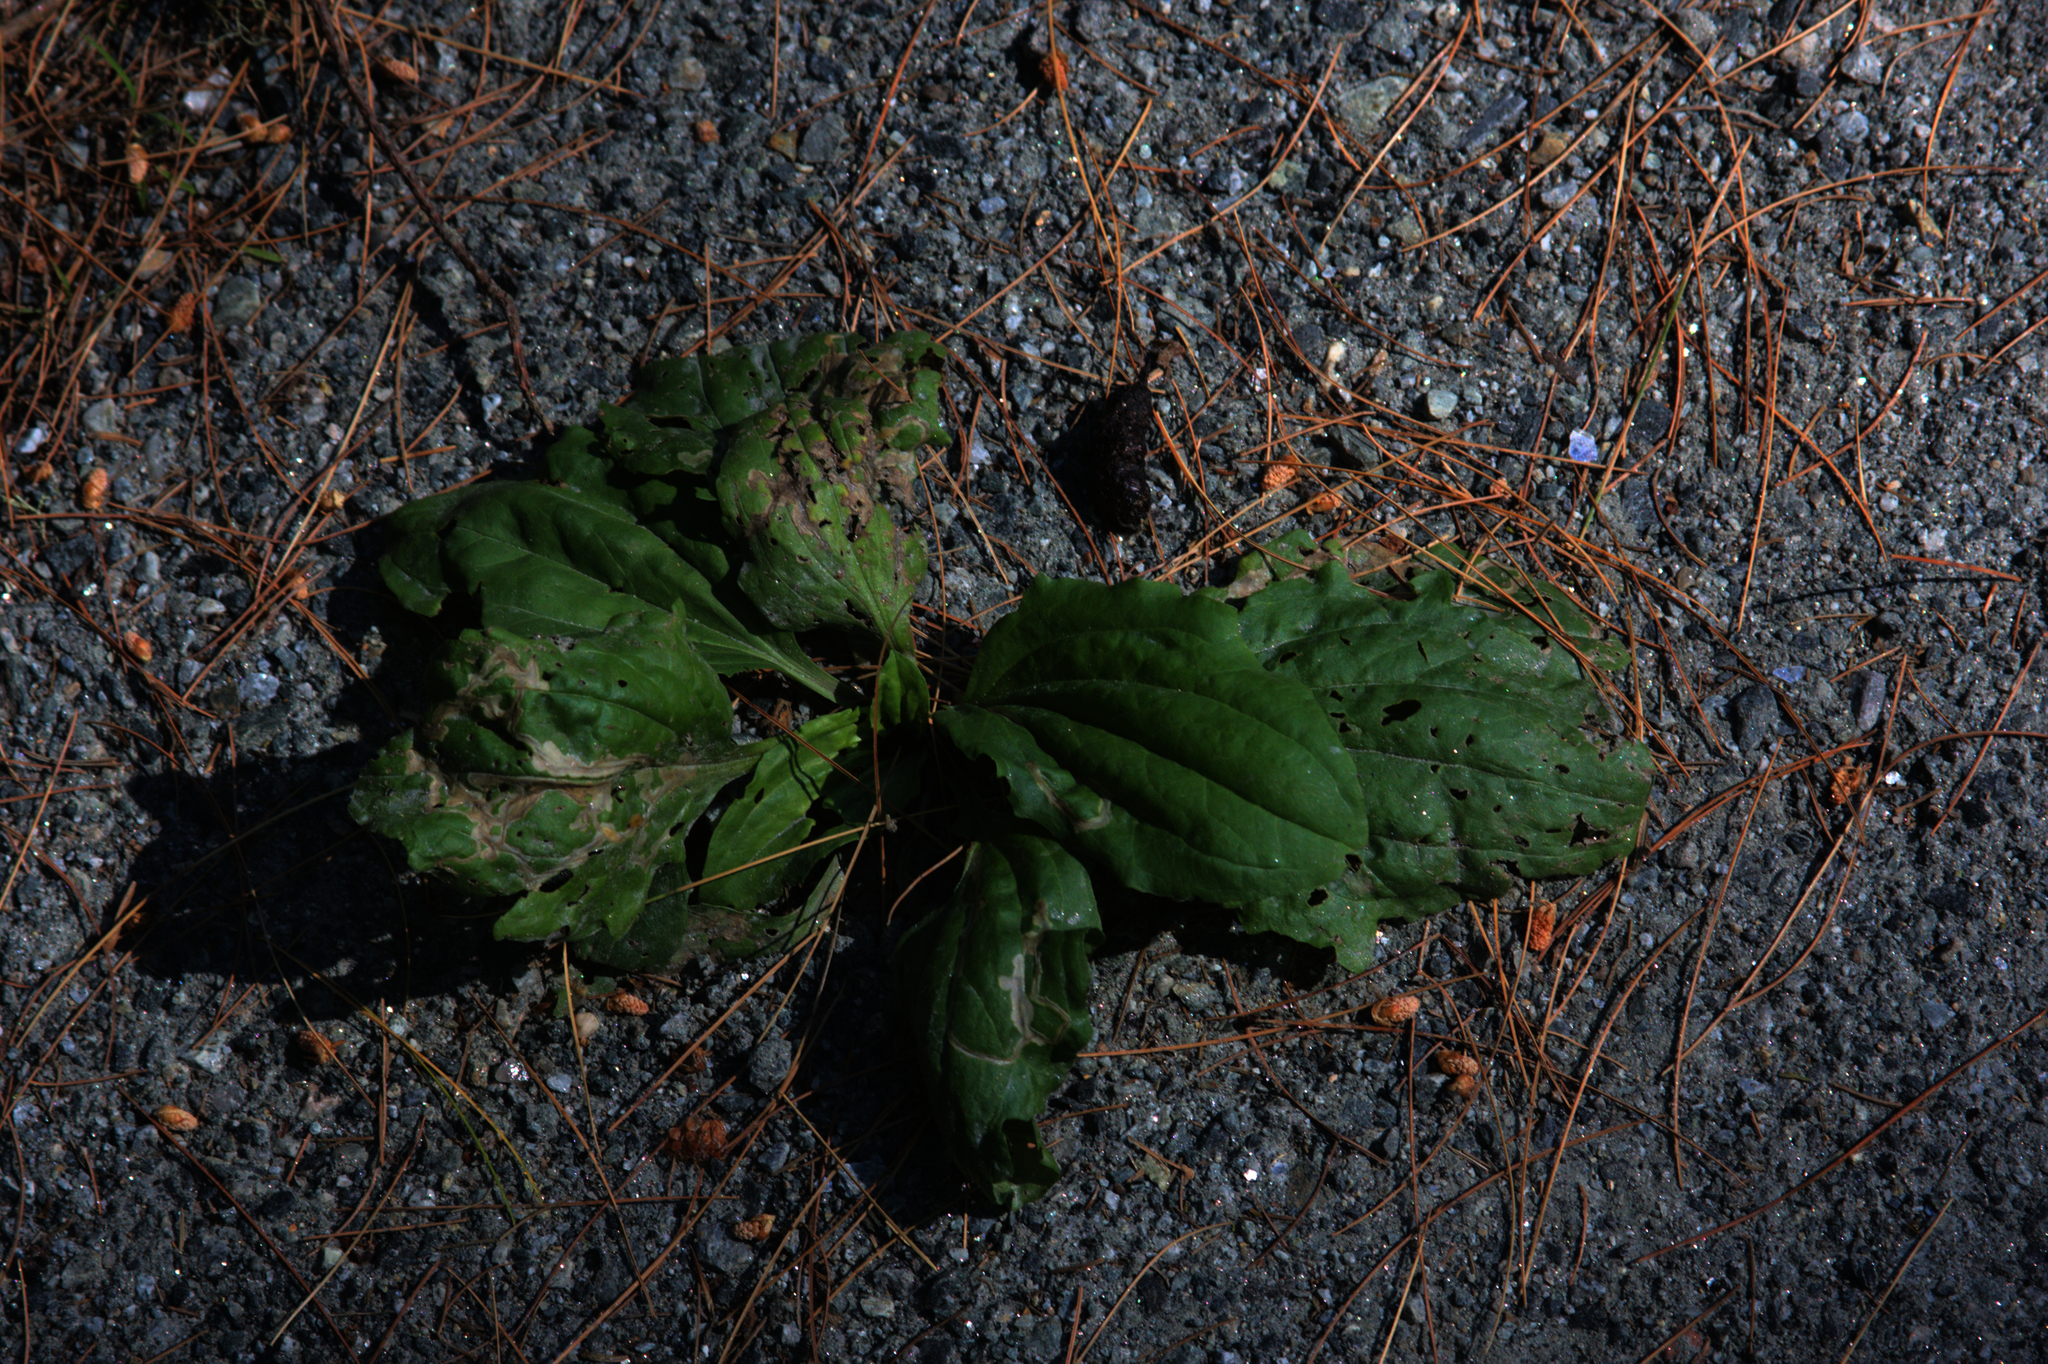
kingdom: Plantae
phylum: Tracheophyta
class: Magnoliopsida
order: Lamiales
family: Plantaginaceae
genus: Plantago
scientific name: Plantago major
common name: Common plantain
